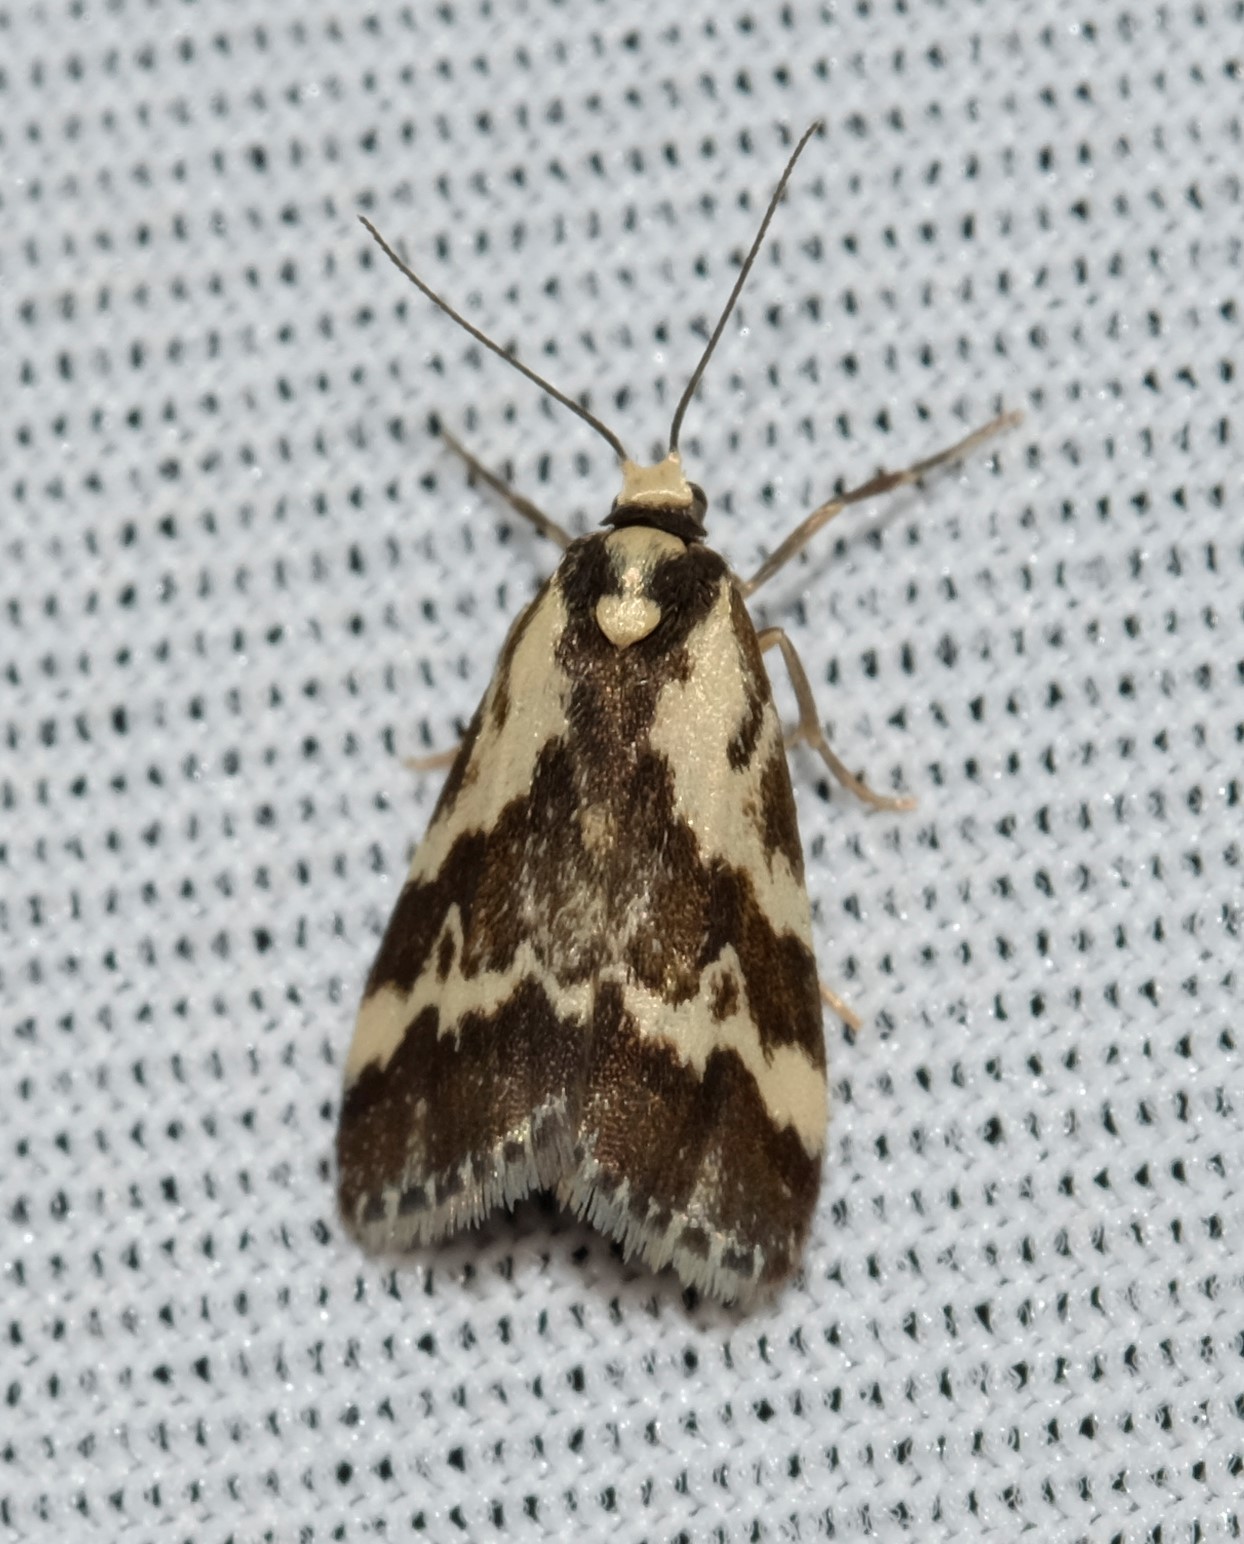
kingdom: Animalia
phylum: Arthropoda
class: Insecta
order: Lepidoptera
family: Erebidae
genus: Damias
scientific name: Damias procrena
